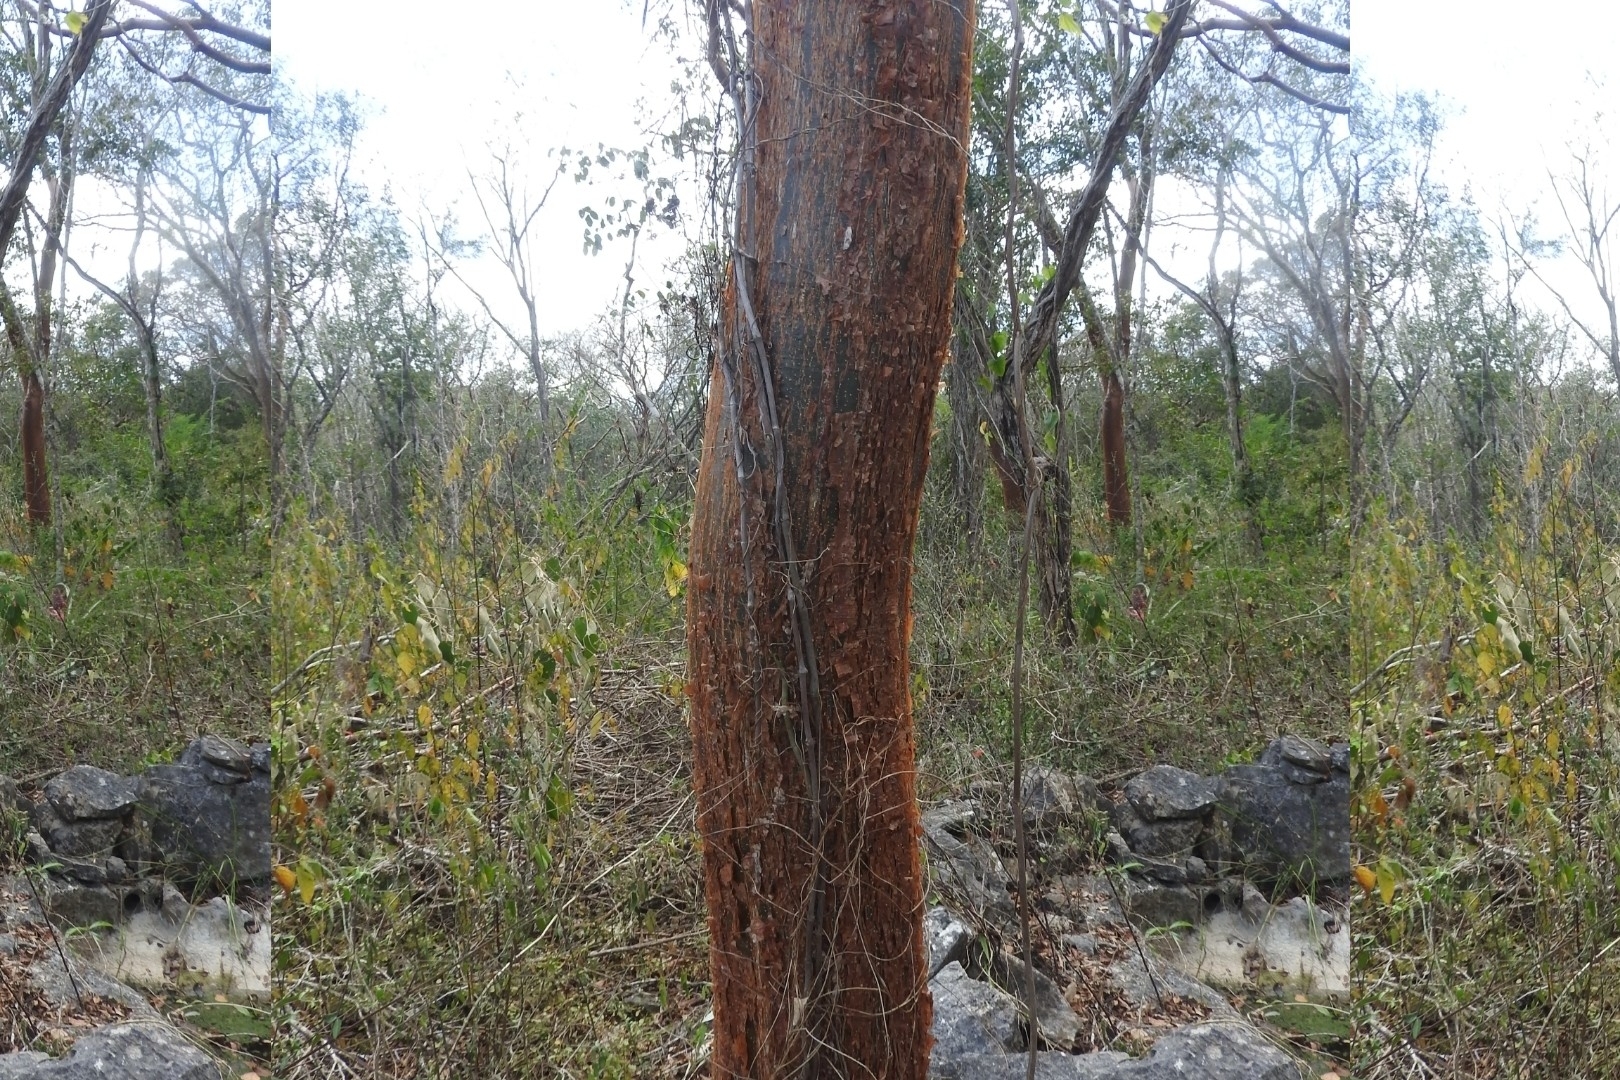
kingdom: Plantae
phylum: Tracheophyta
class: Magnoliopsida
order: Sapindales
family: Burseraceae
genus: Bursera
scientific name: Bursera simaruba
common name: Turpentine tree
